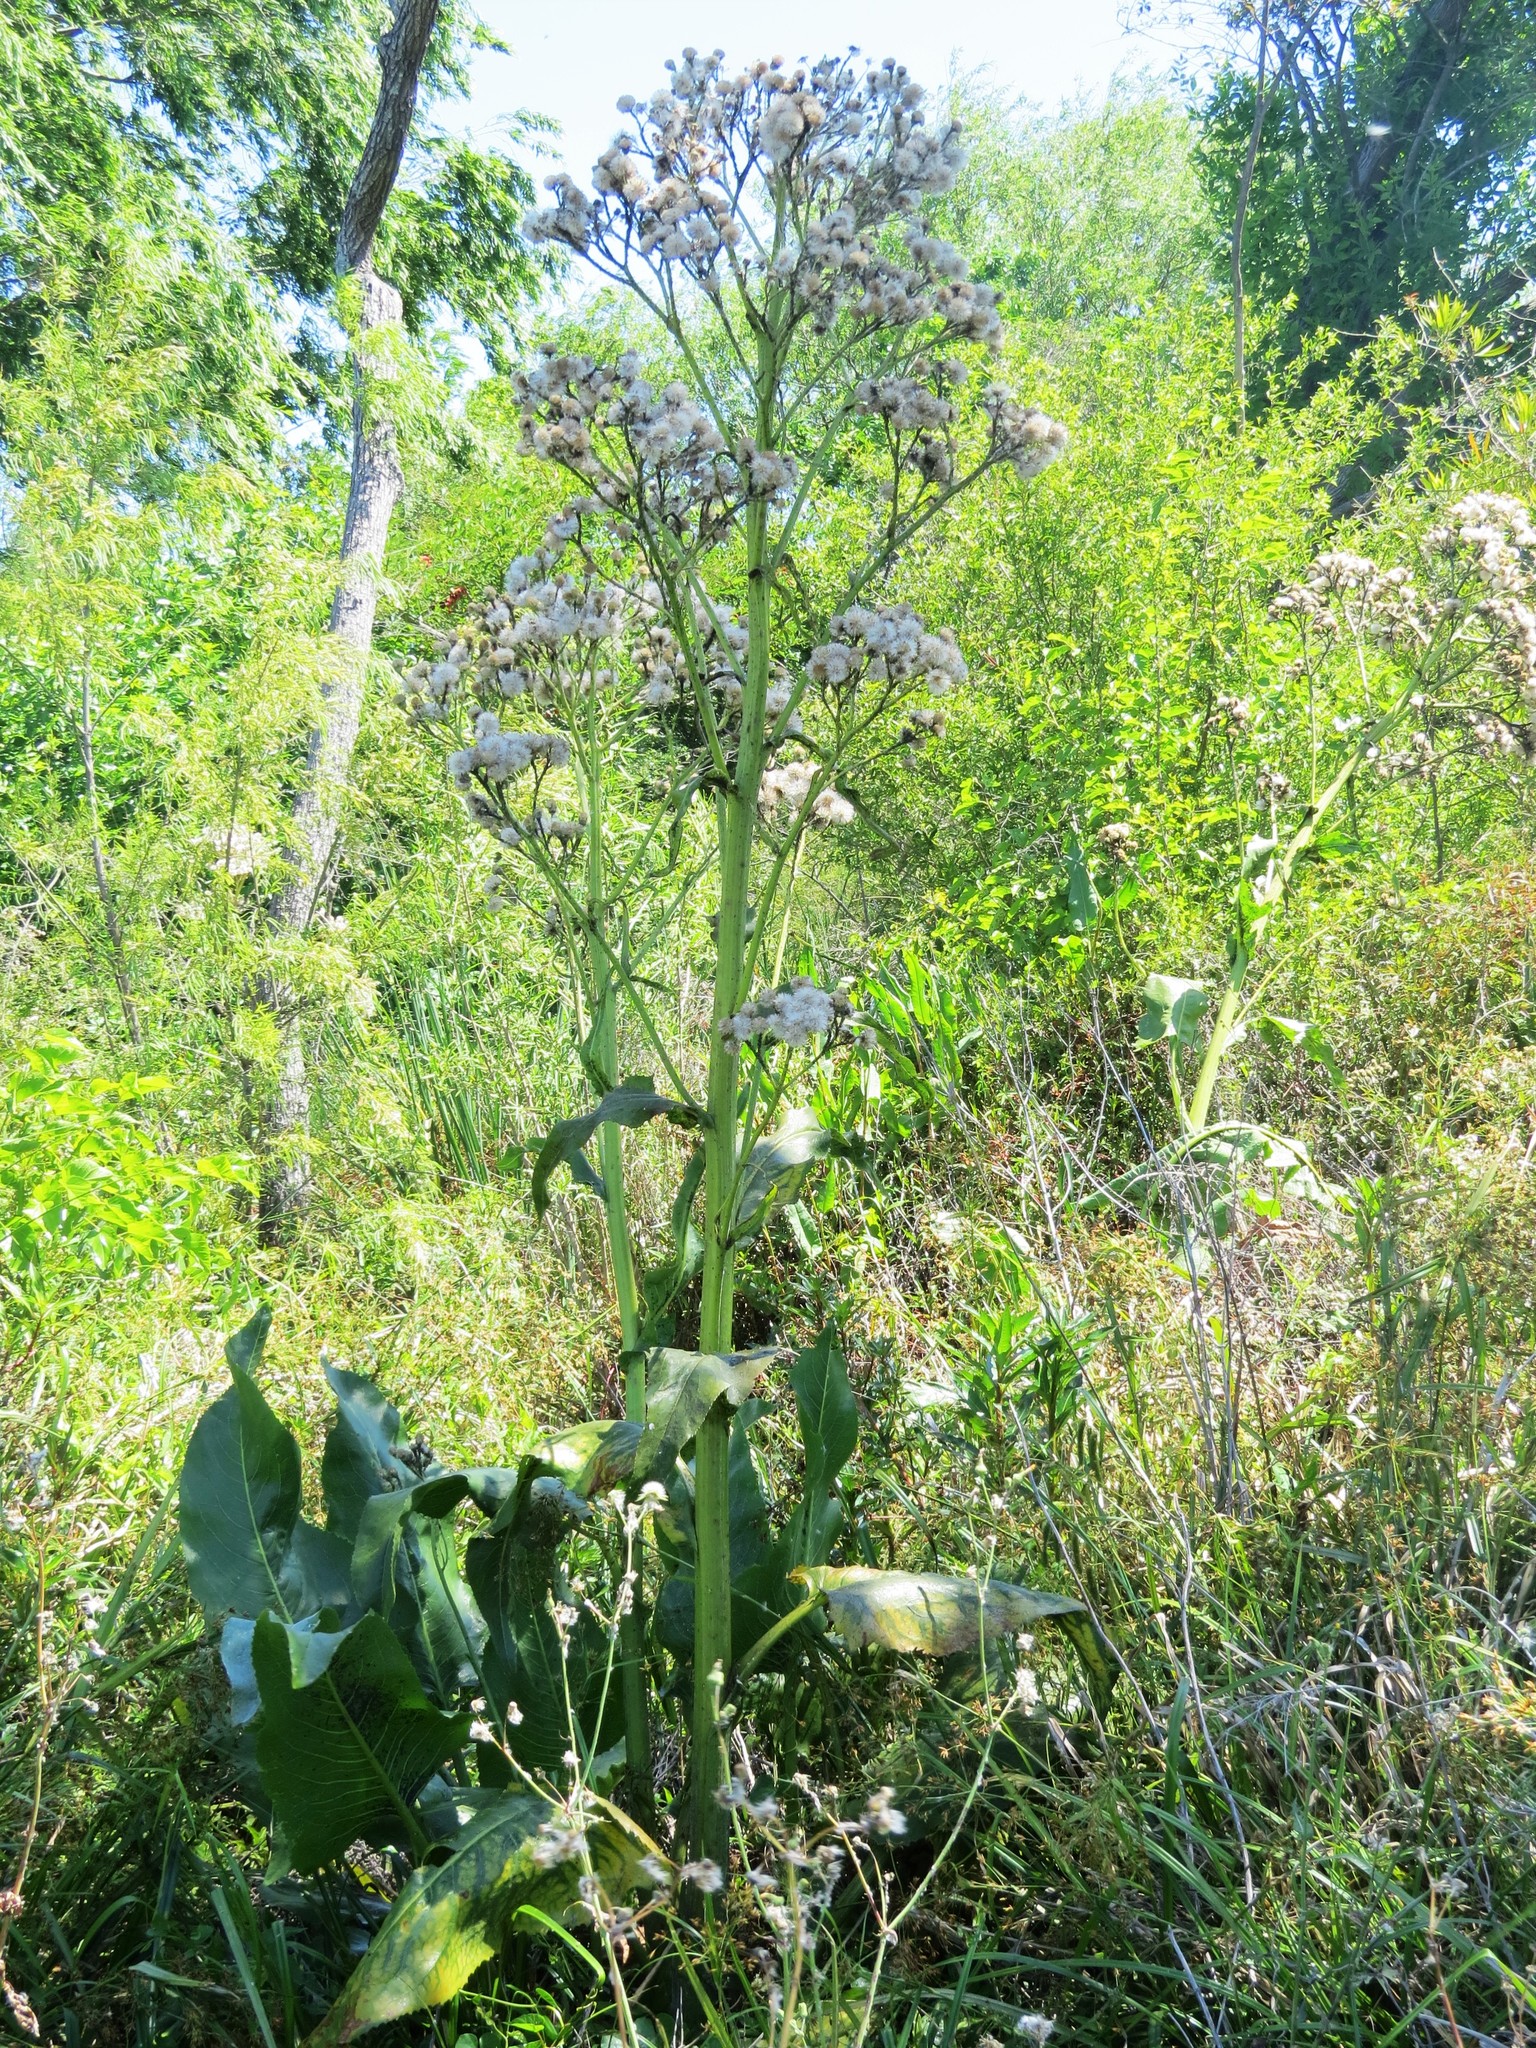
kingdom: Plantae
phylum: Tracheophyta
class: Magnoliopsida
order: Asterales
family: Asteraceae
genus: Senecio
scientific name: Senecio bonariensis
